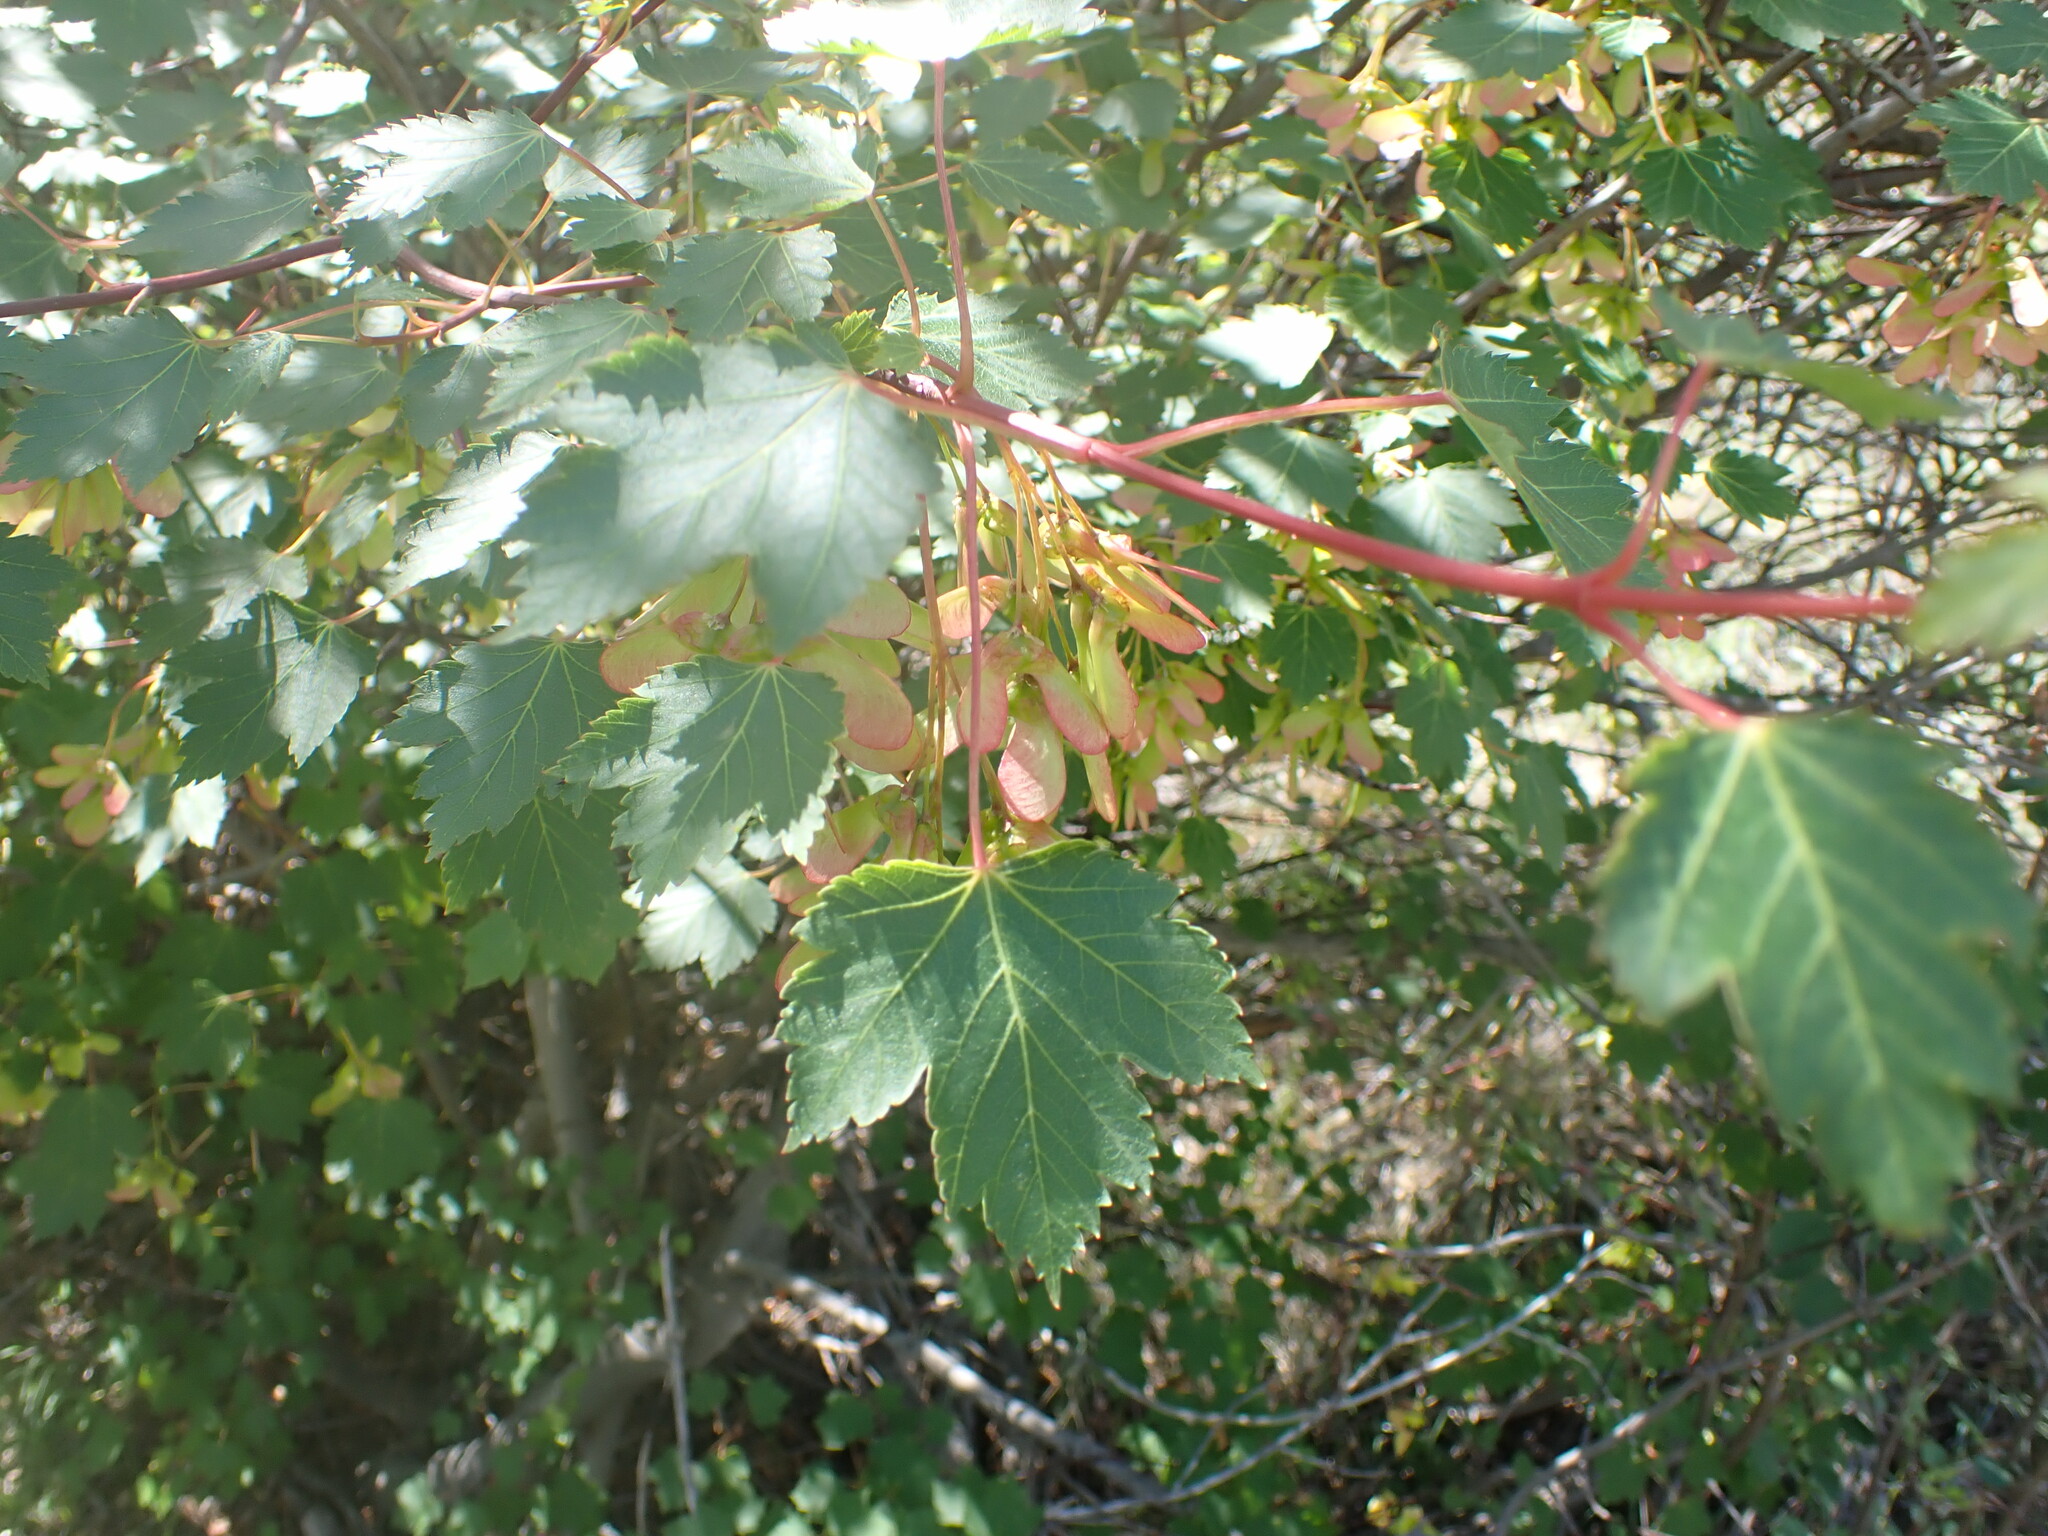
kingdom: Plantae
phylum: Tracheophyta
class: Magnoliopsida
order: Sapindales
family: Sapindaceae
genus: Acer
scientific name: Acer glabrum
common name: Rocky mountain maple
